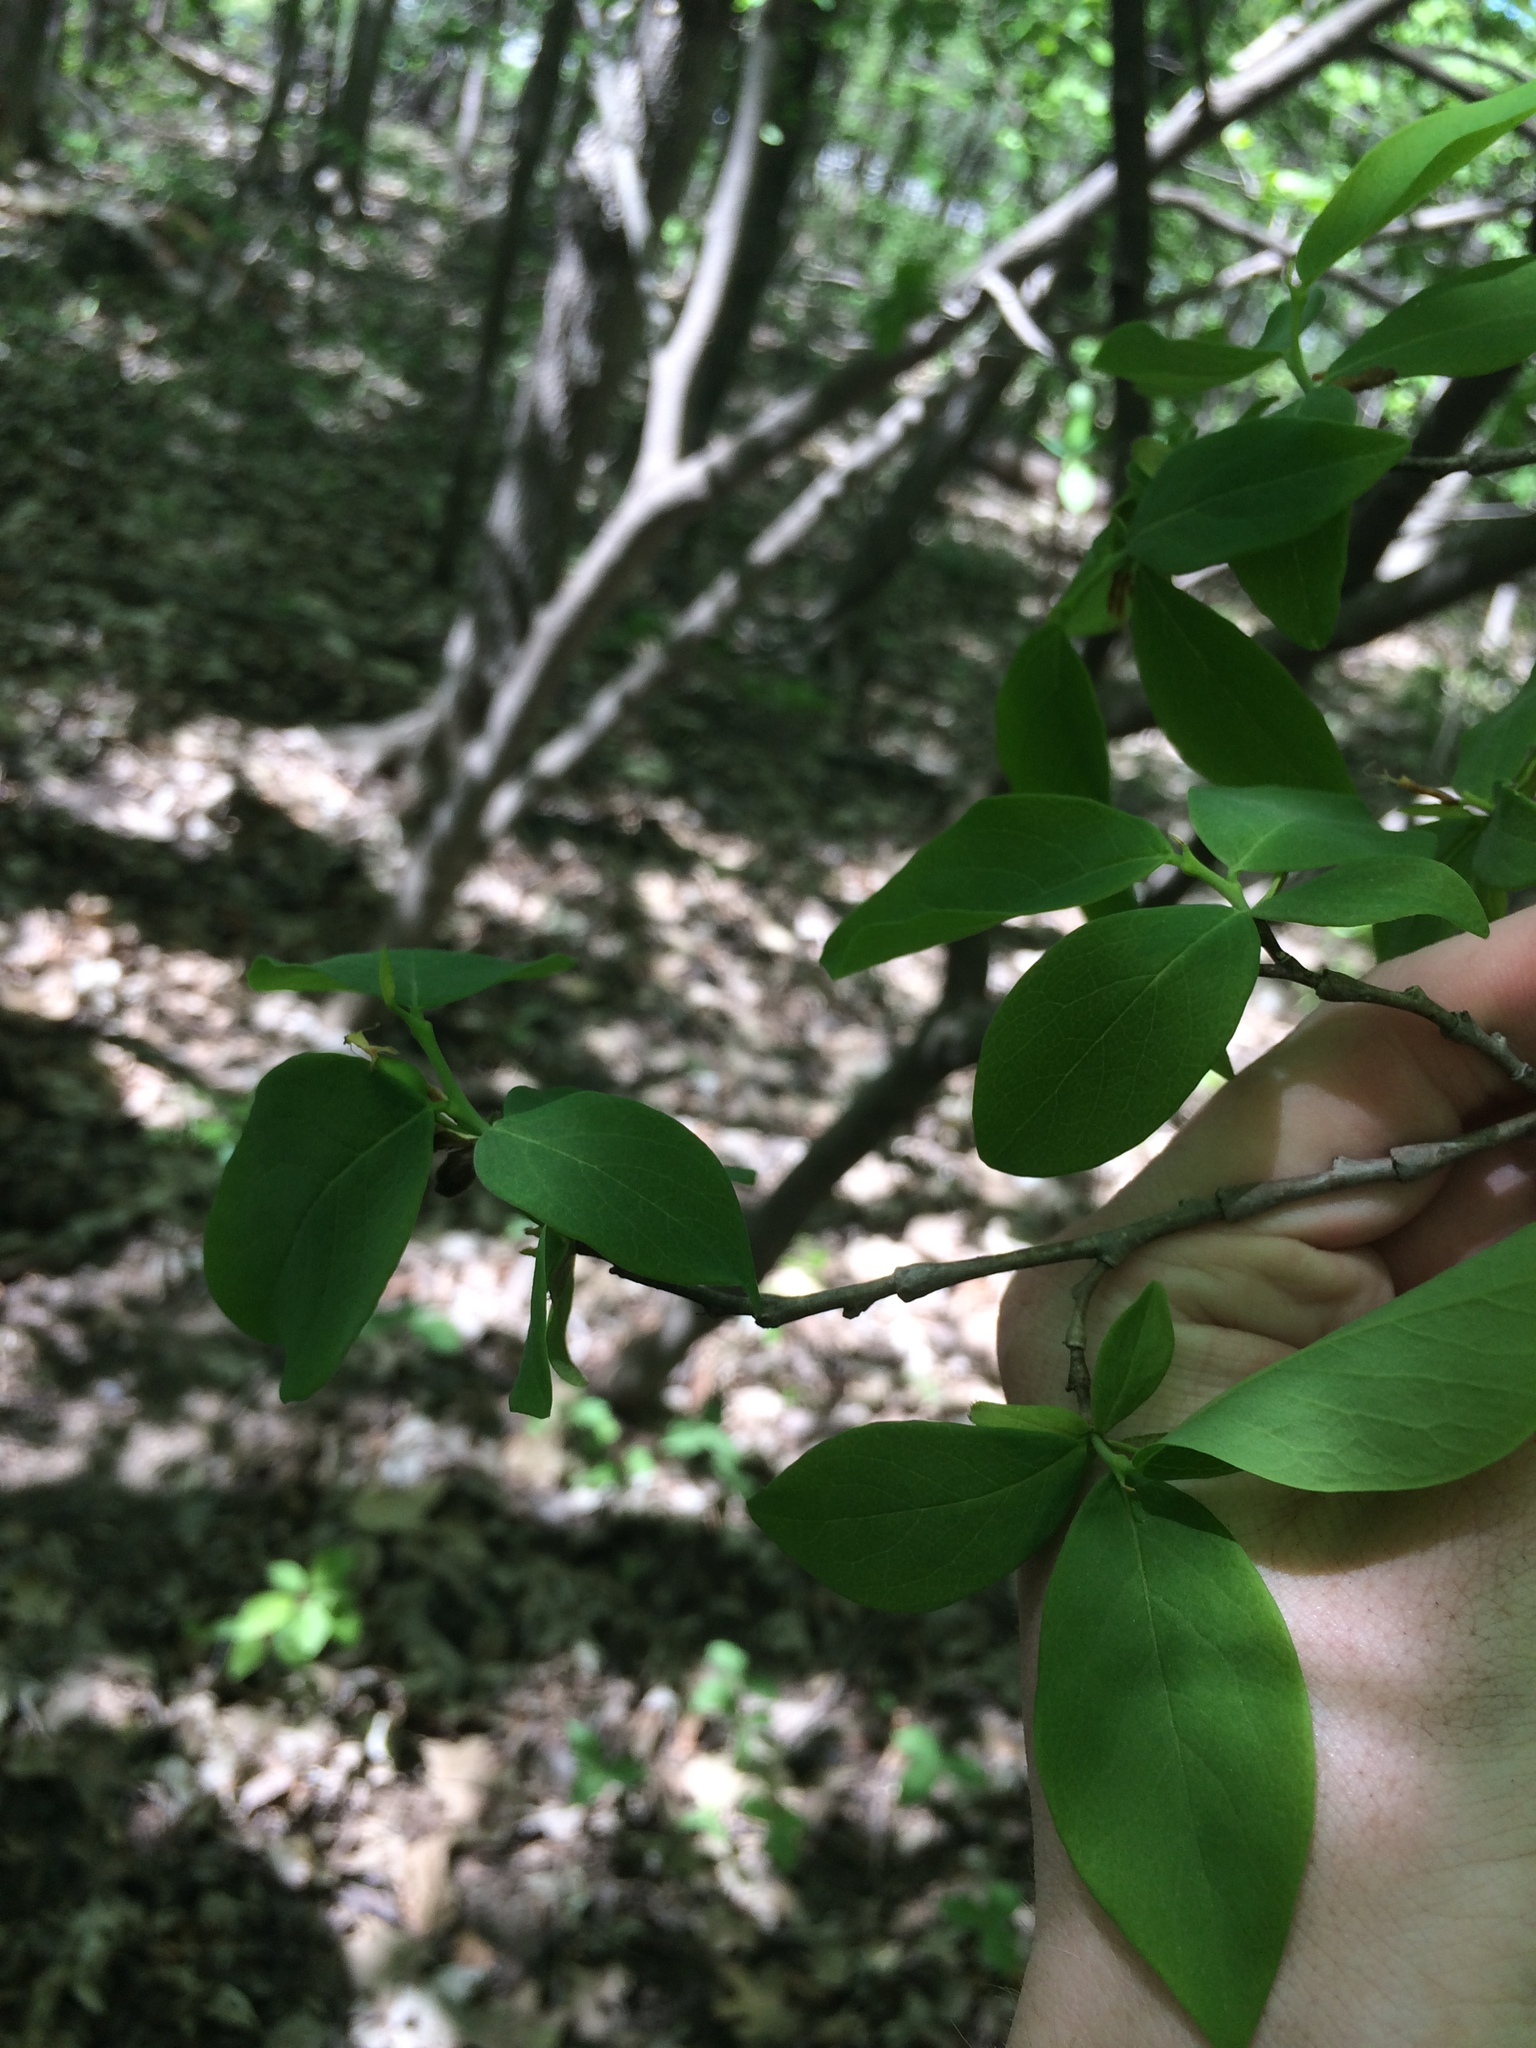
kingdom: Plantae
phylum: Tracheophyta
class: Magnoliopsida
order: Malvales
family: Thymelaeaceae
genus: Dirca
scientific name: Dirca palustris
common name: Leatherwood
